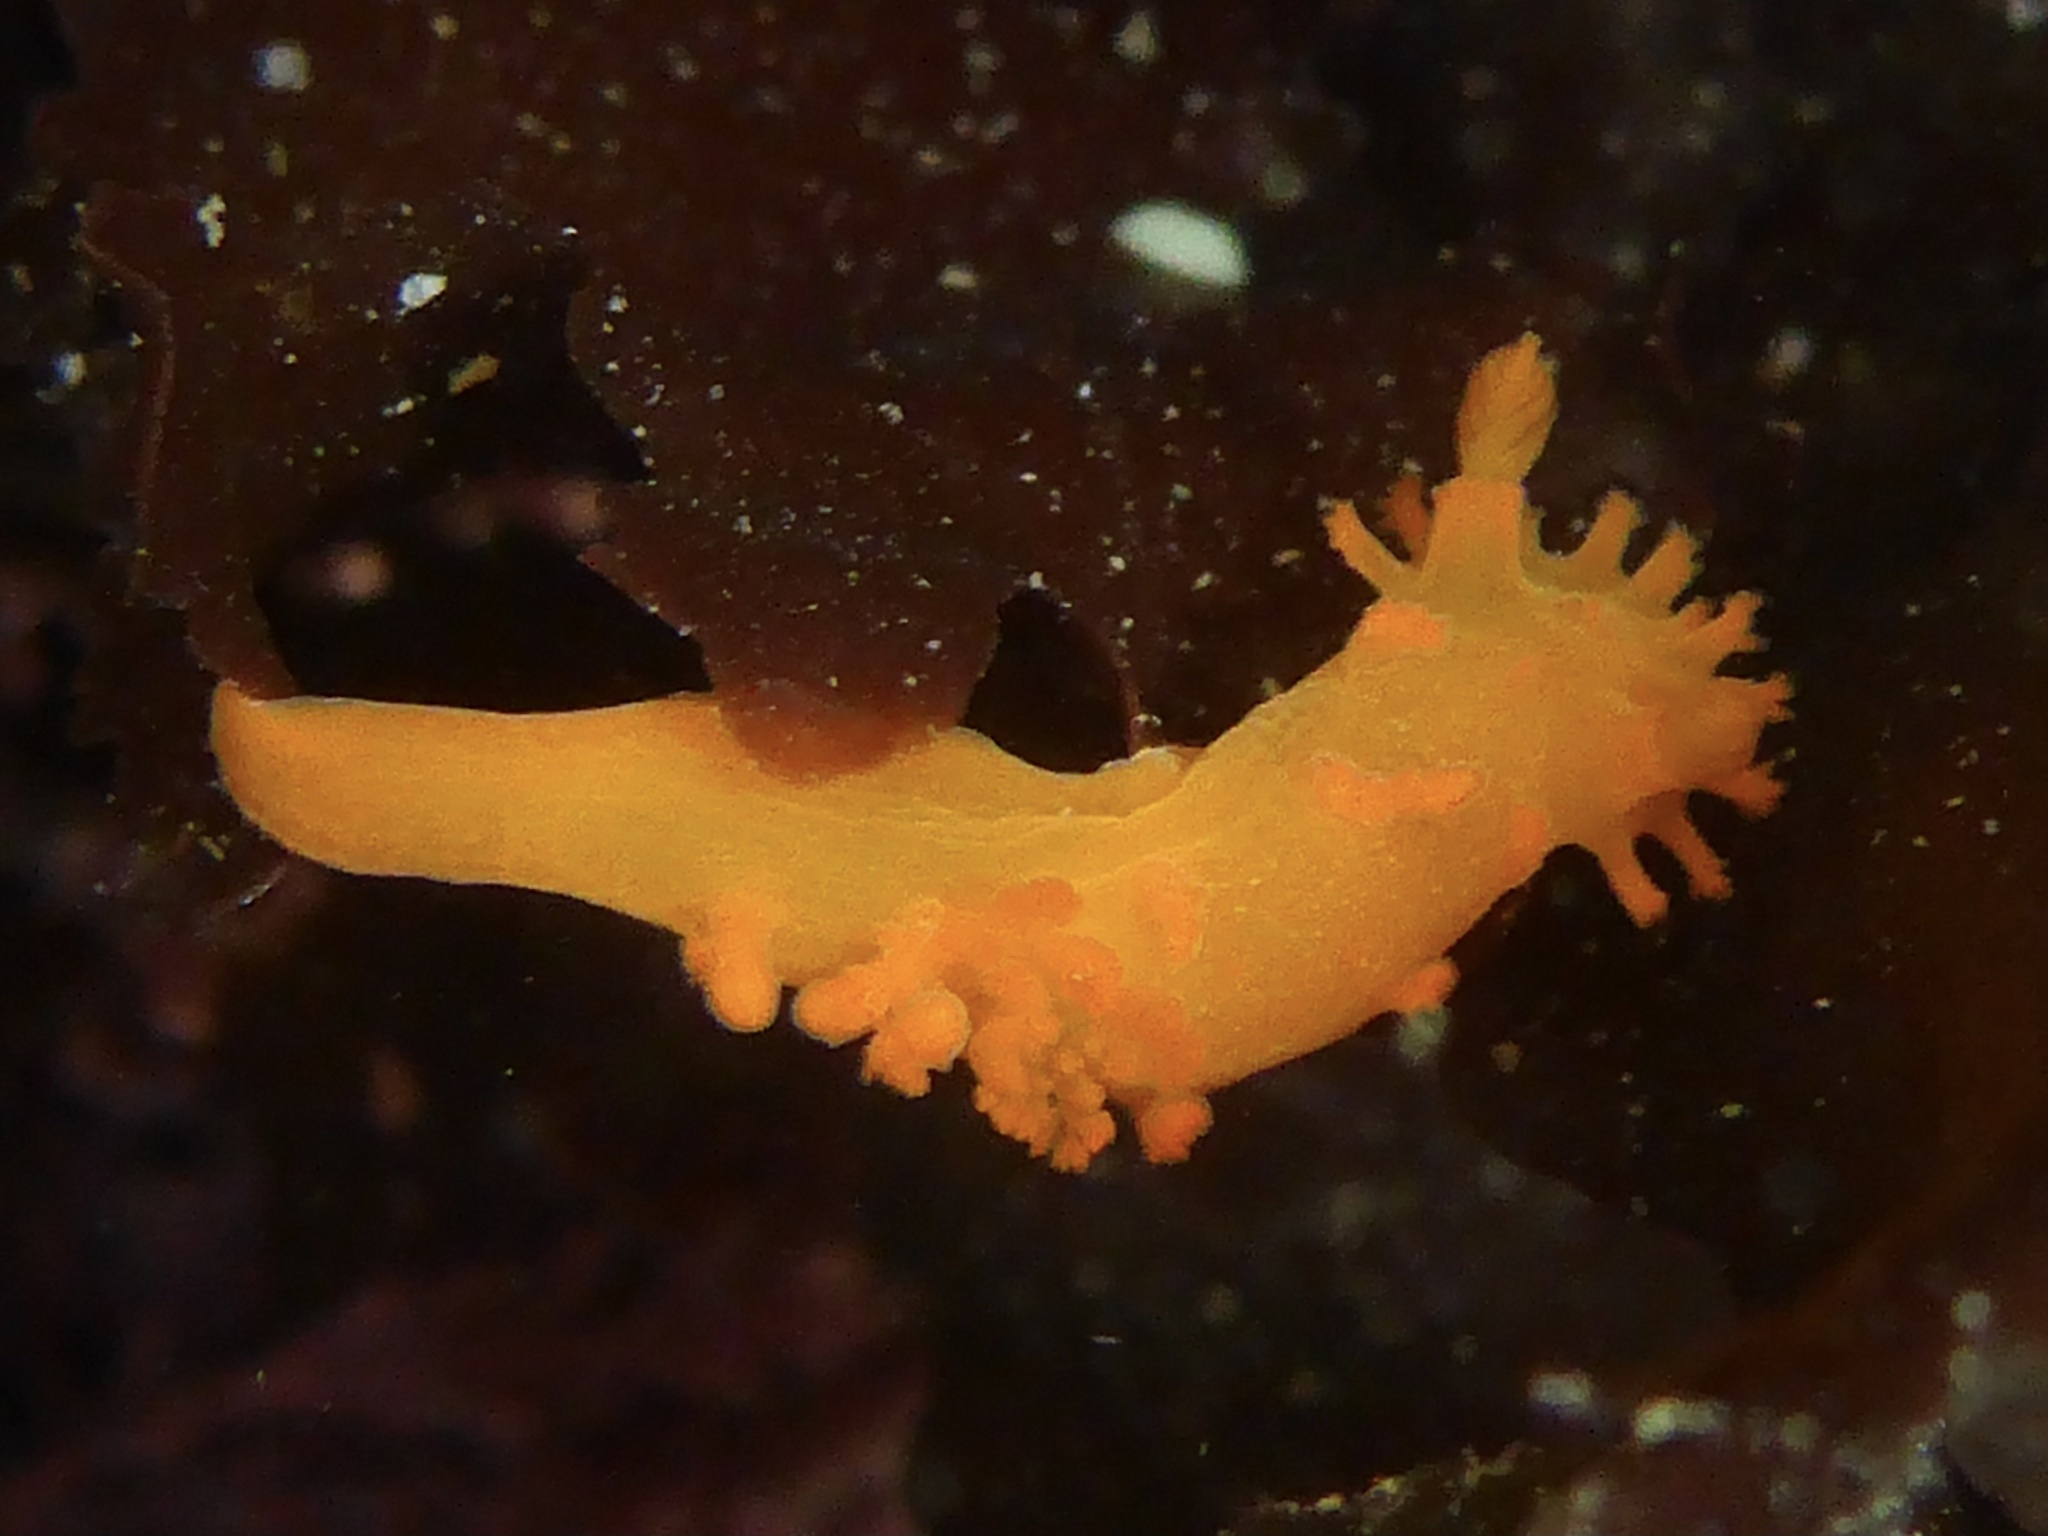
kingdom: Animalia
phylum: Mollusca
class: Gastropoda
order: Nudibranchia
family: Polyceridae
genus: Triopha
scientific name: Triopha maculata
